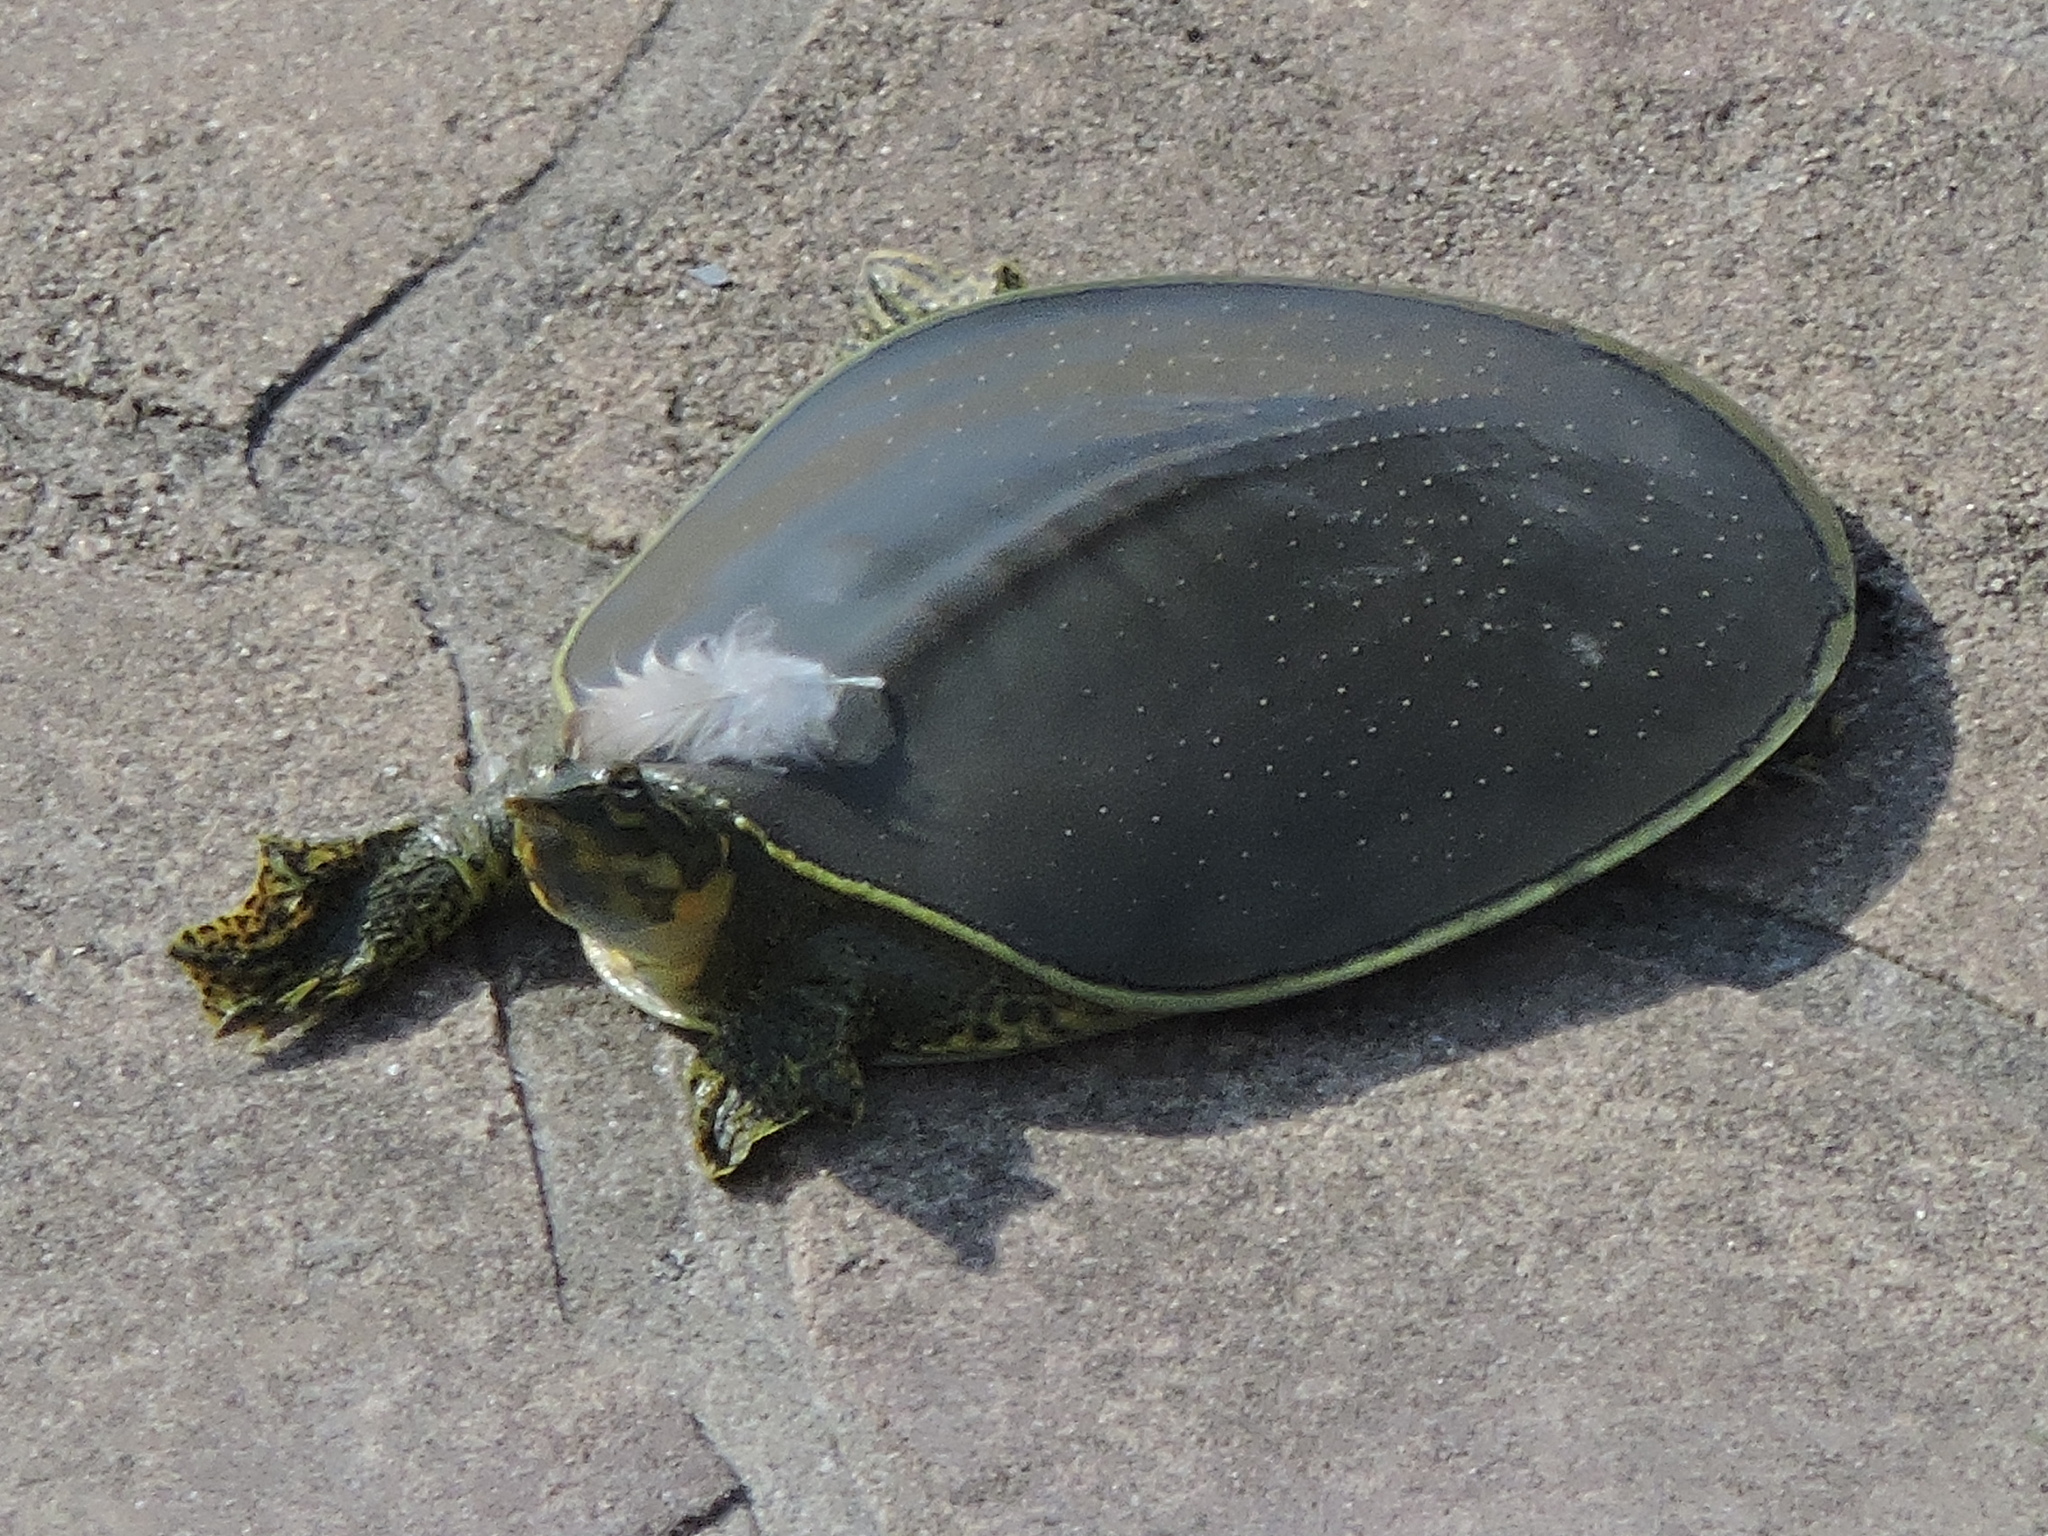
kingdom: Animalia
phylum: Chordata
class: Testudines
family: Trionychidae
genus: Apalone
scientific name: Apalone spinifera
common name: Spiny softshell turtle
